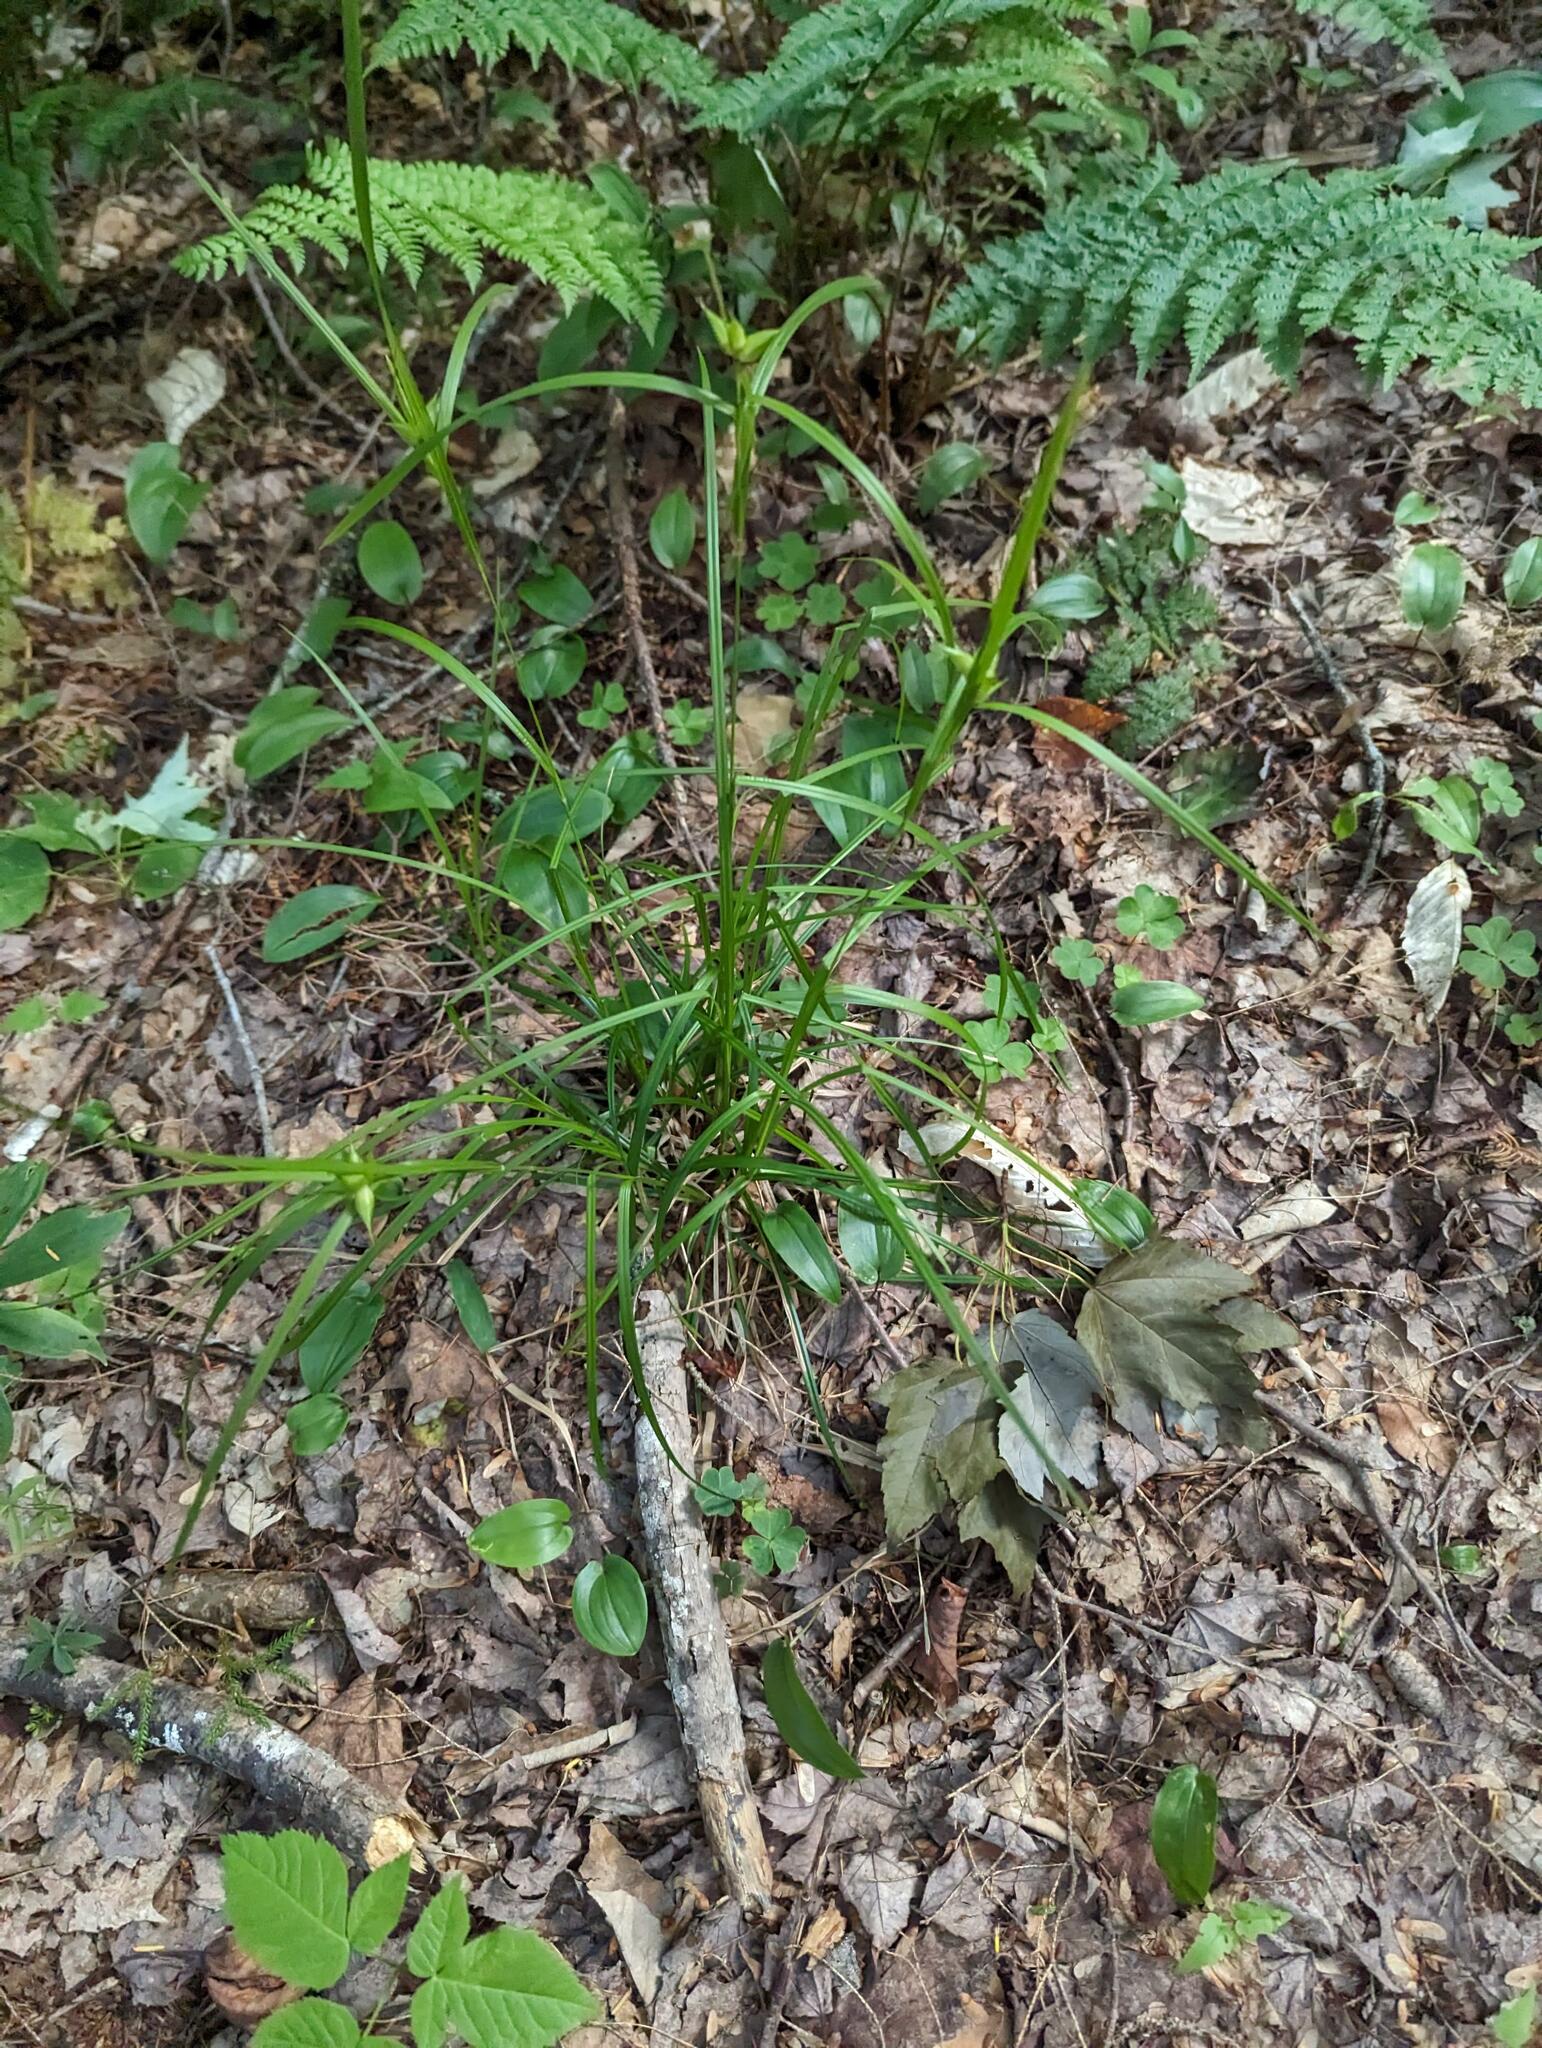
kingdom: Plantae
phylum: Tracheophyta
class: Liliopsida
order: Poales
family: Cyperaceae
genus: Carex
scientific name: Carex intumescens
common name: Greater bladder sedge
